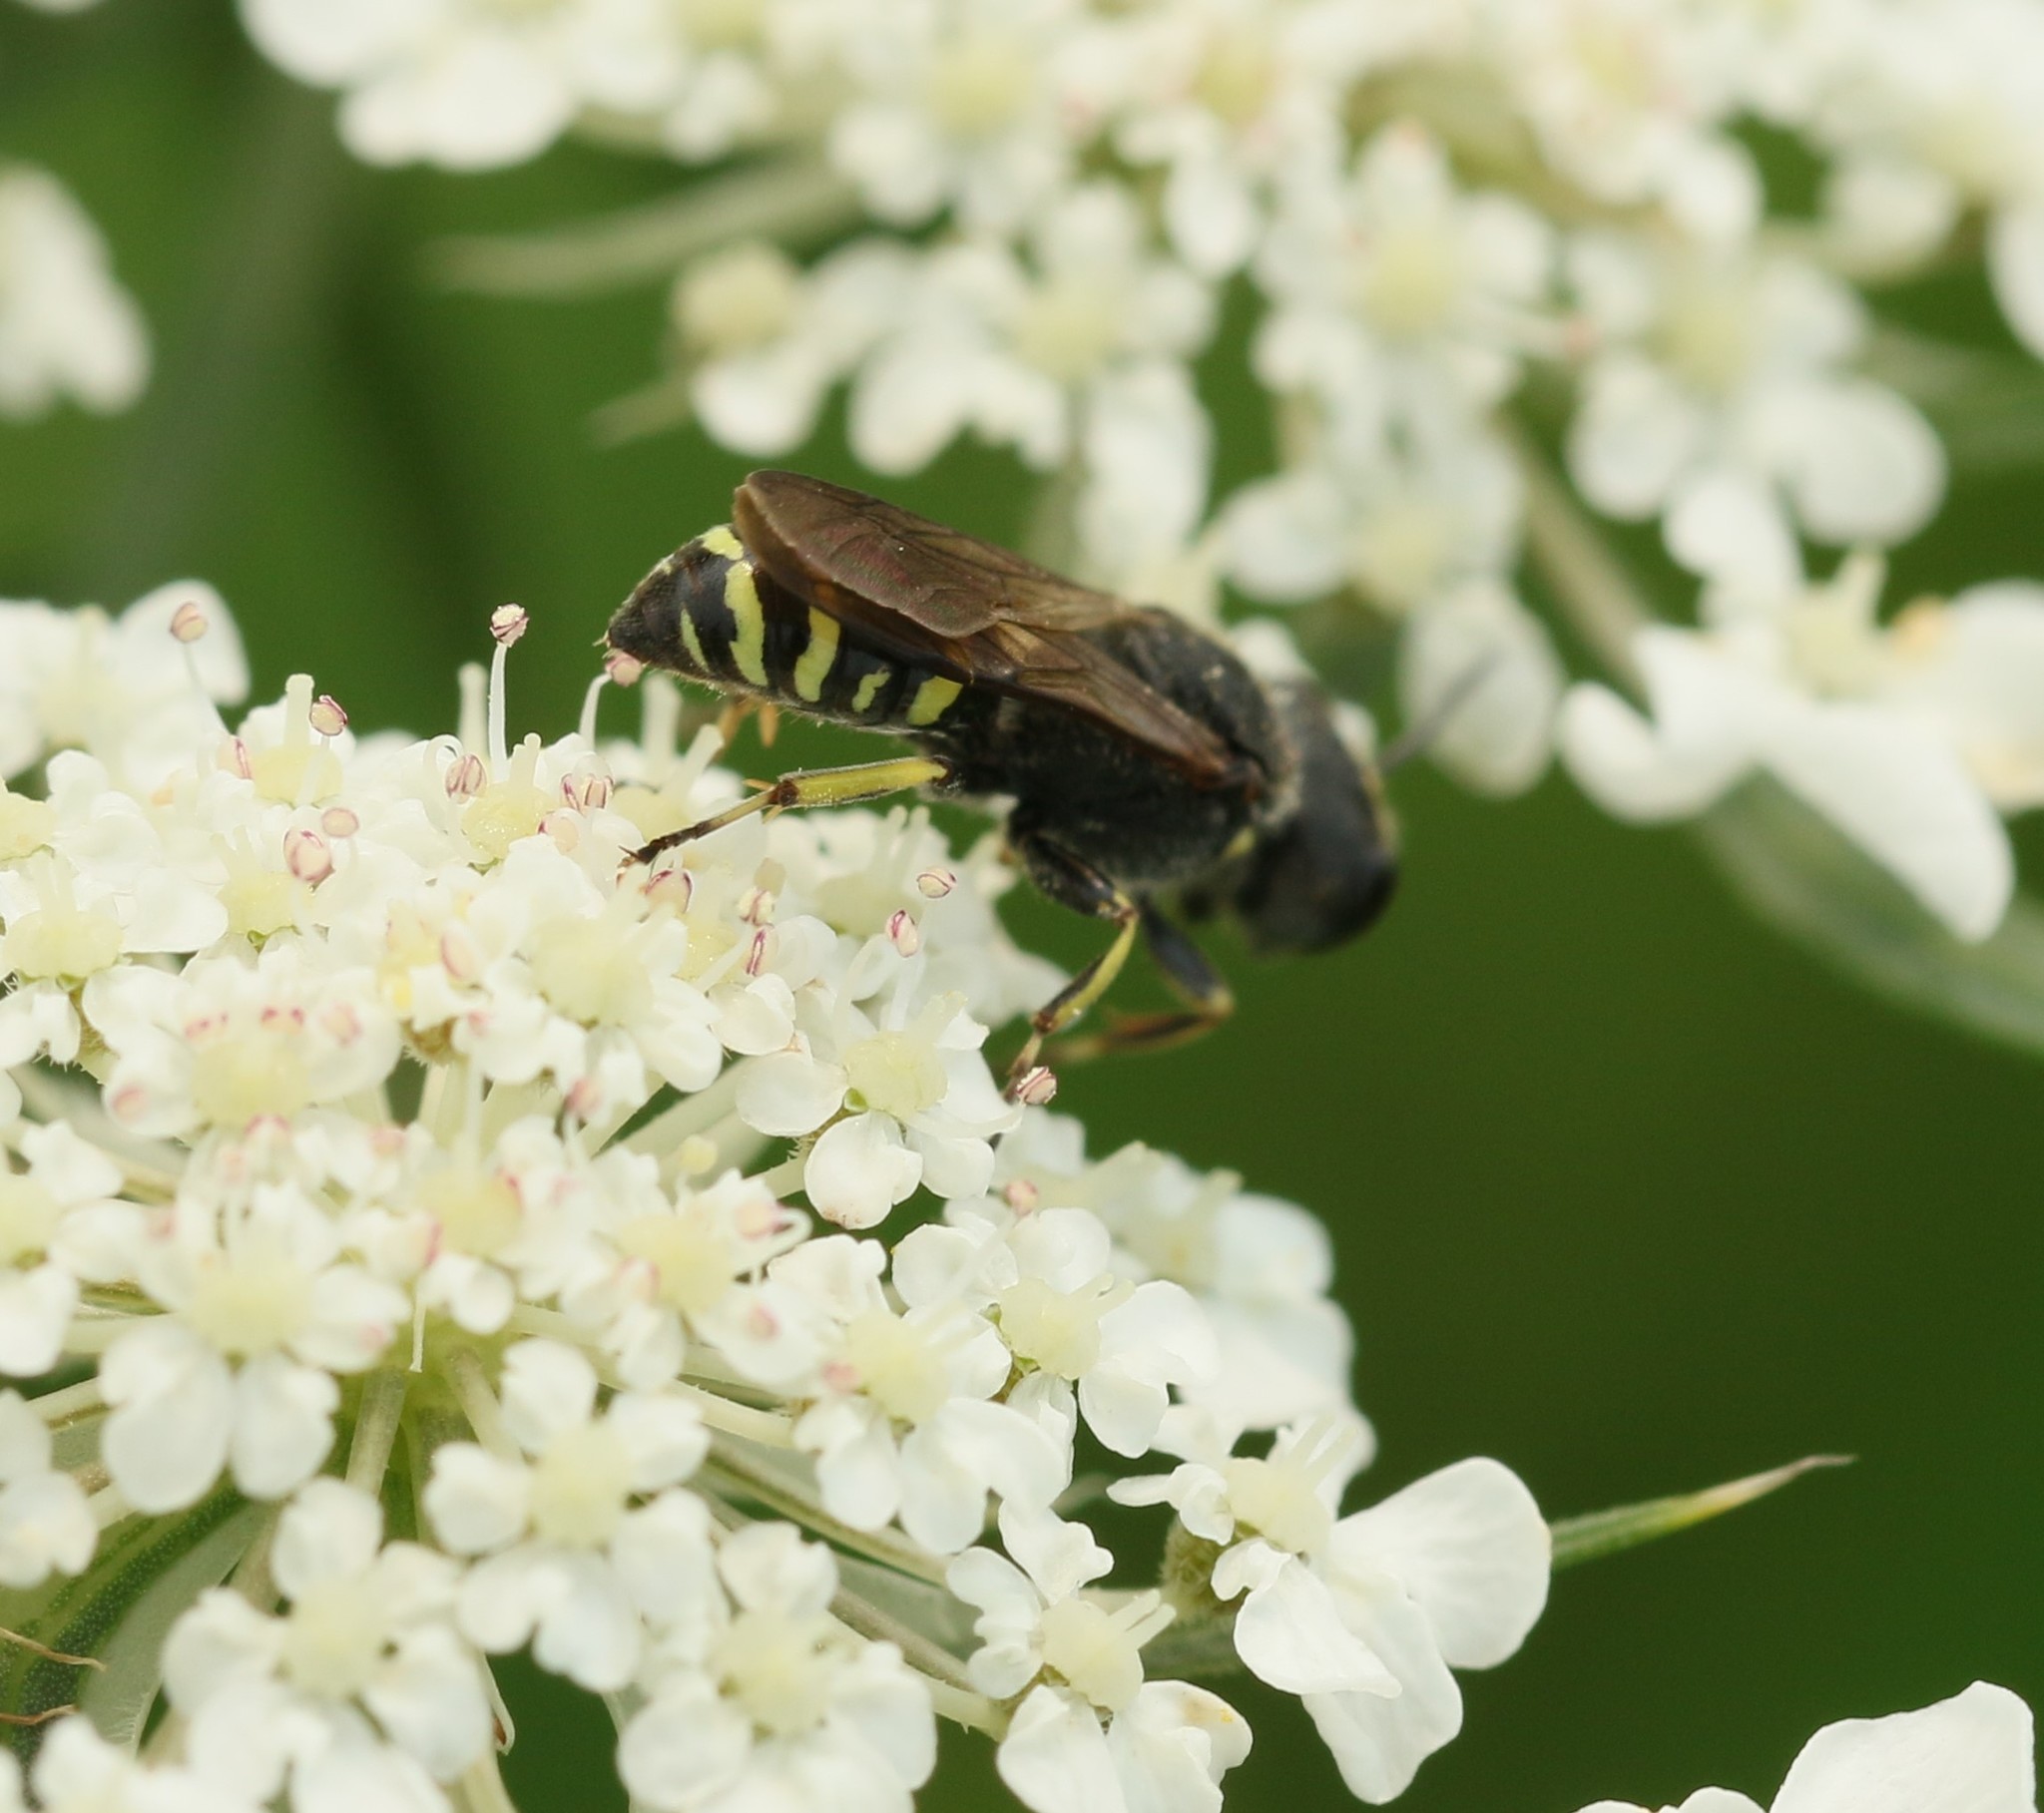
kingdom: Animalia
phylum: Arthropoda
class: Insecta
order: Hymenoptera
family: Crabronidae
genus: Ectemnius
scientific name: Ectemnius
